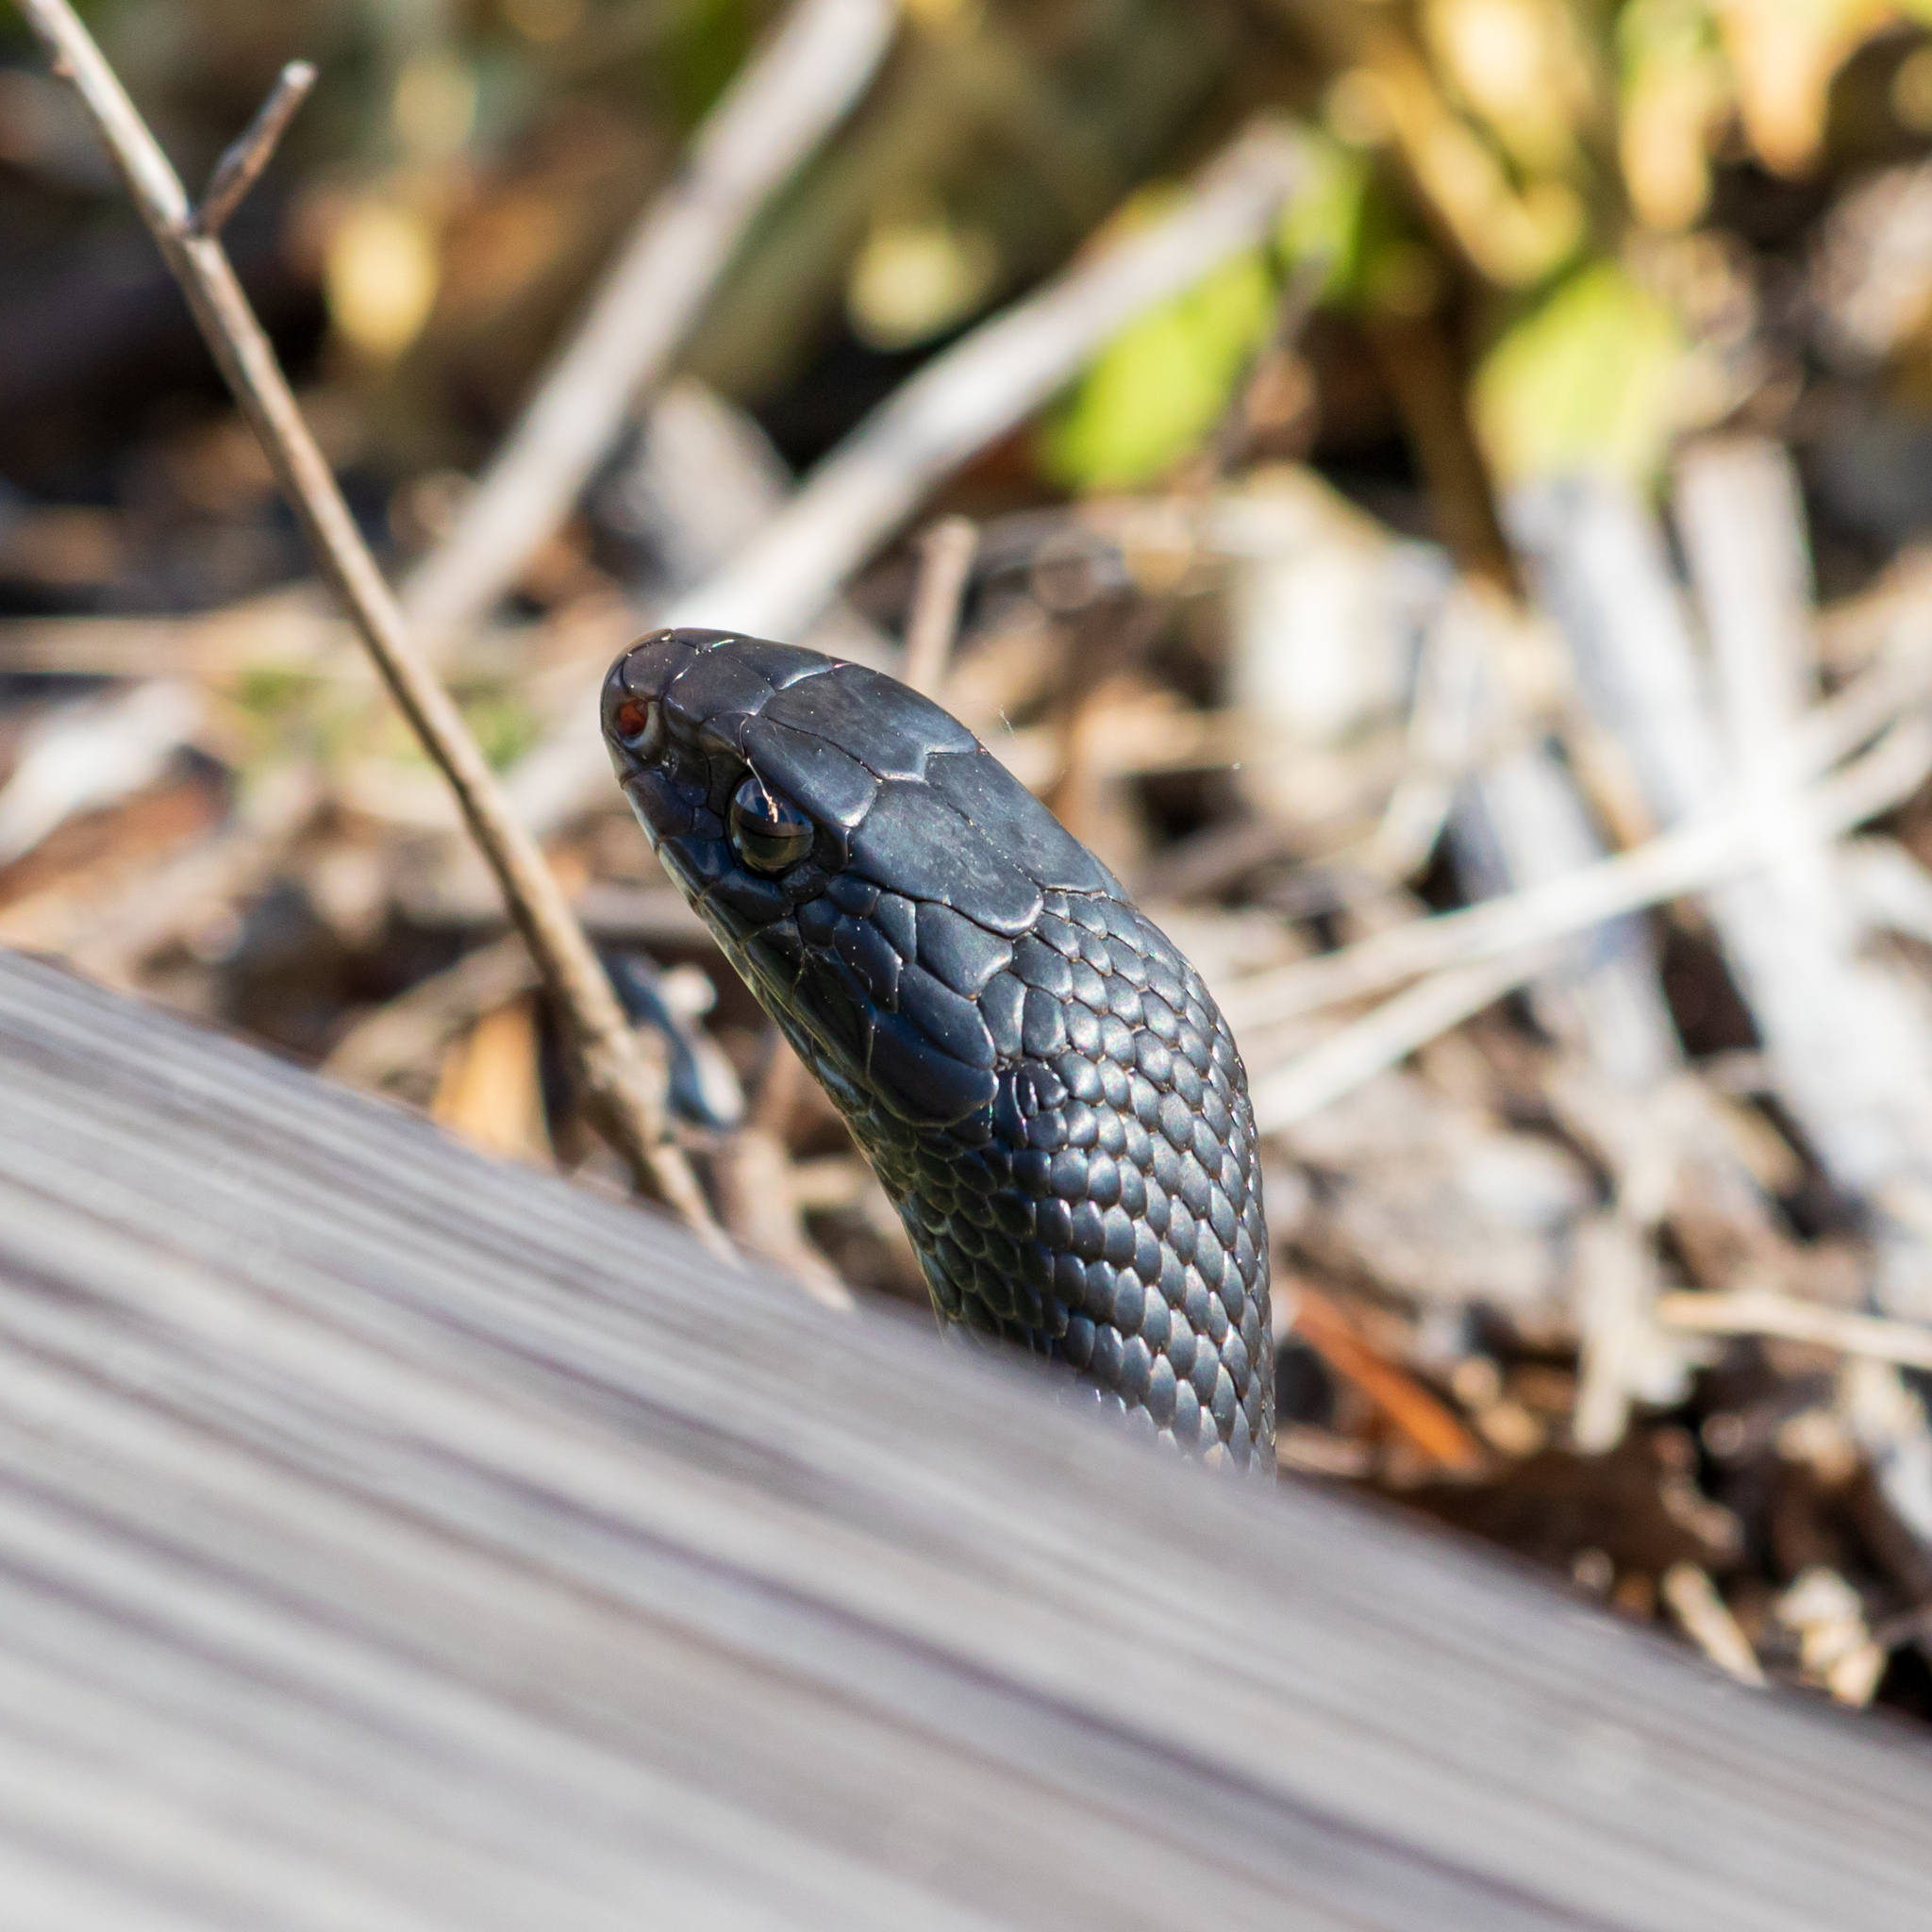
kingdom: Animalia
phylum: Chordata
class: Squamata
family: Colubridae
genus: Coluber
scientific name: Coluber constrictor
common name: Eastern racer
